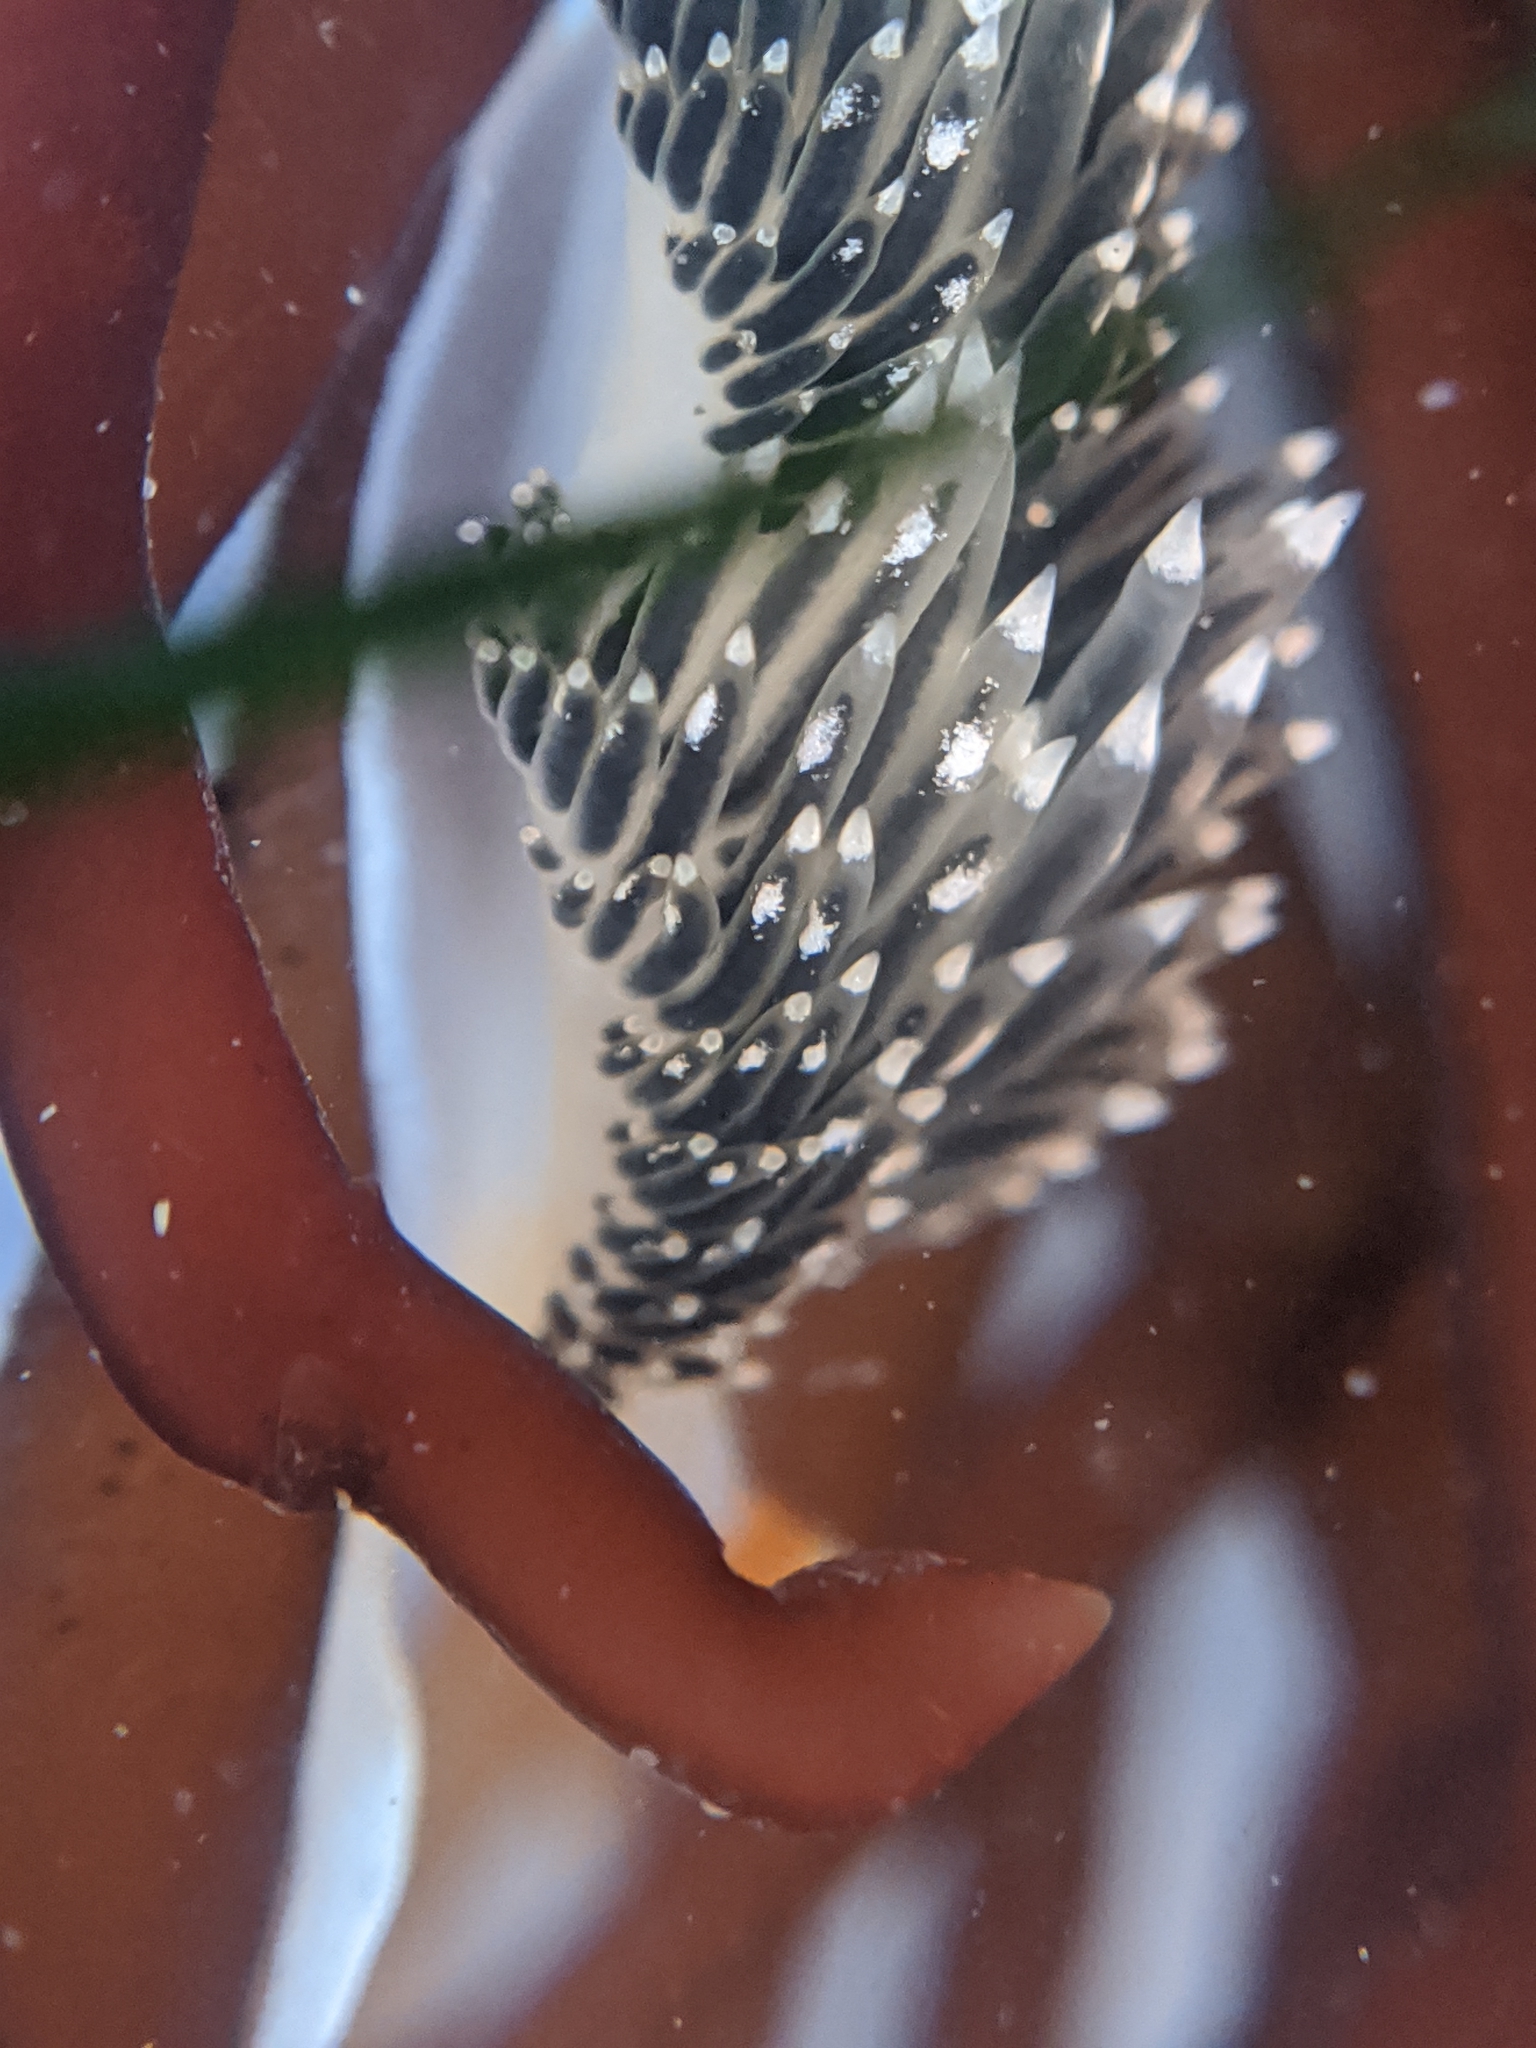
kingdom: Animalia
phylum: Mollusca
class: Gastropoda
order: Nudibranchia
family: Facelinidae
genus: Phidiana
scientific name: Phidiana hiltoni
